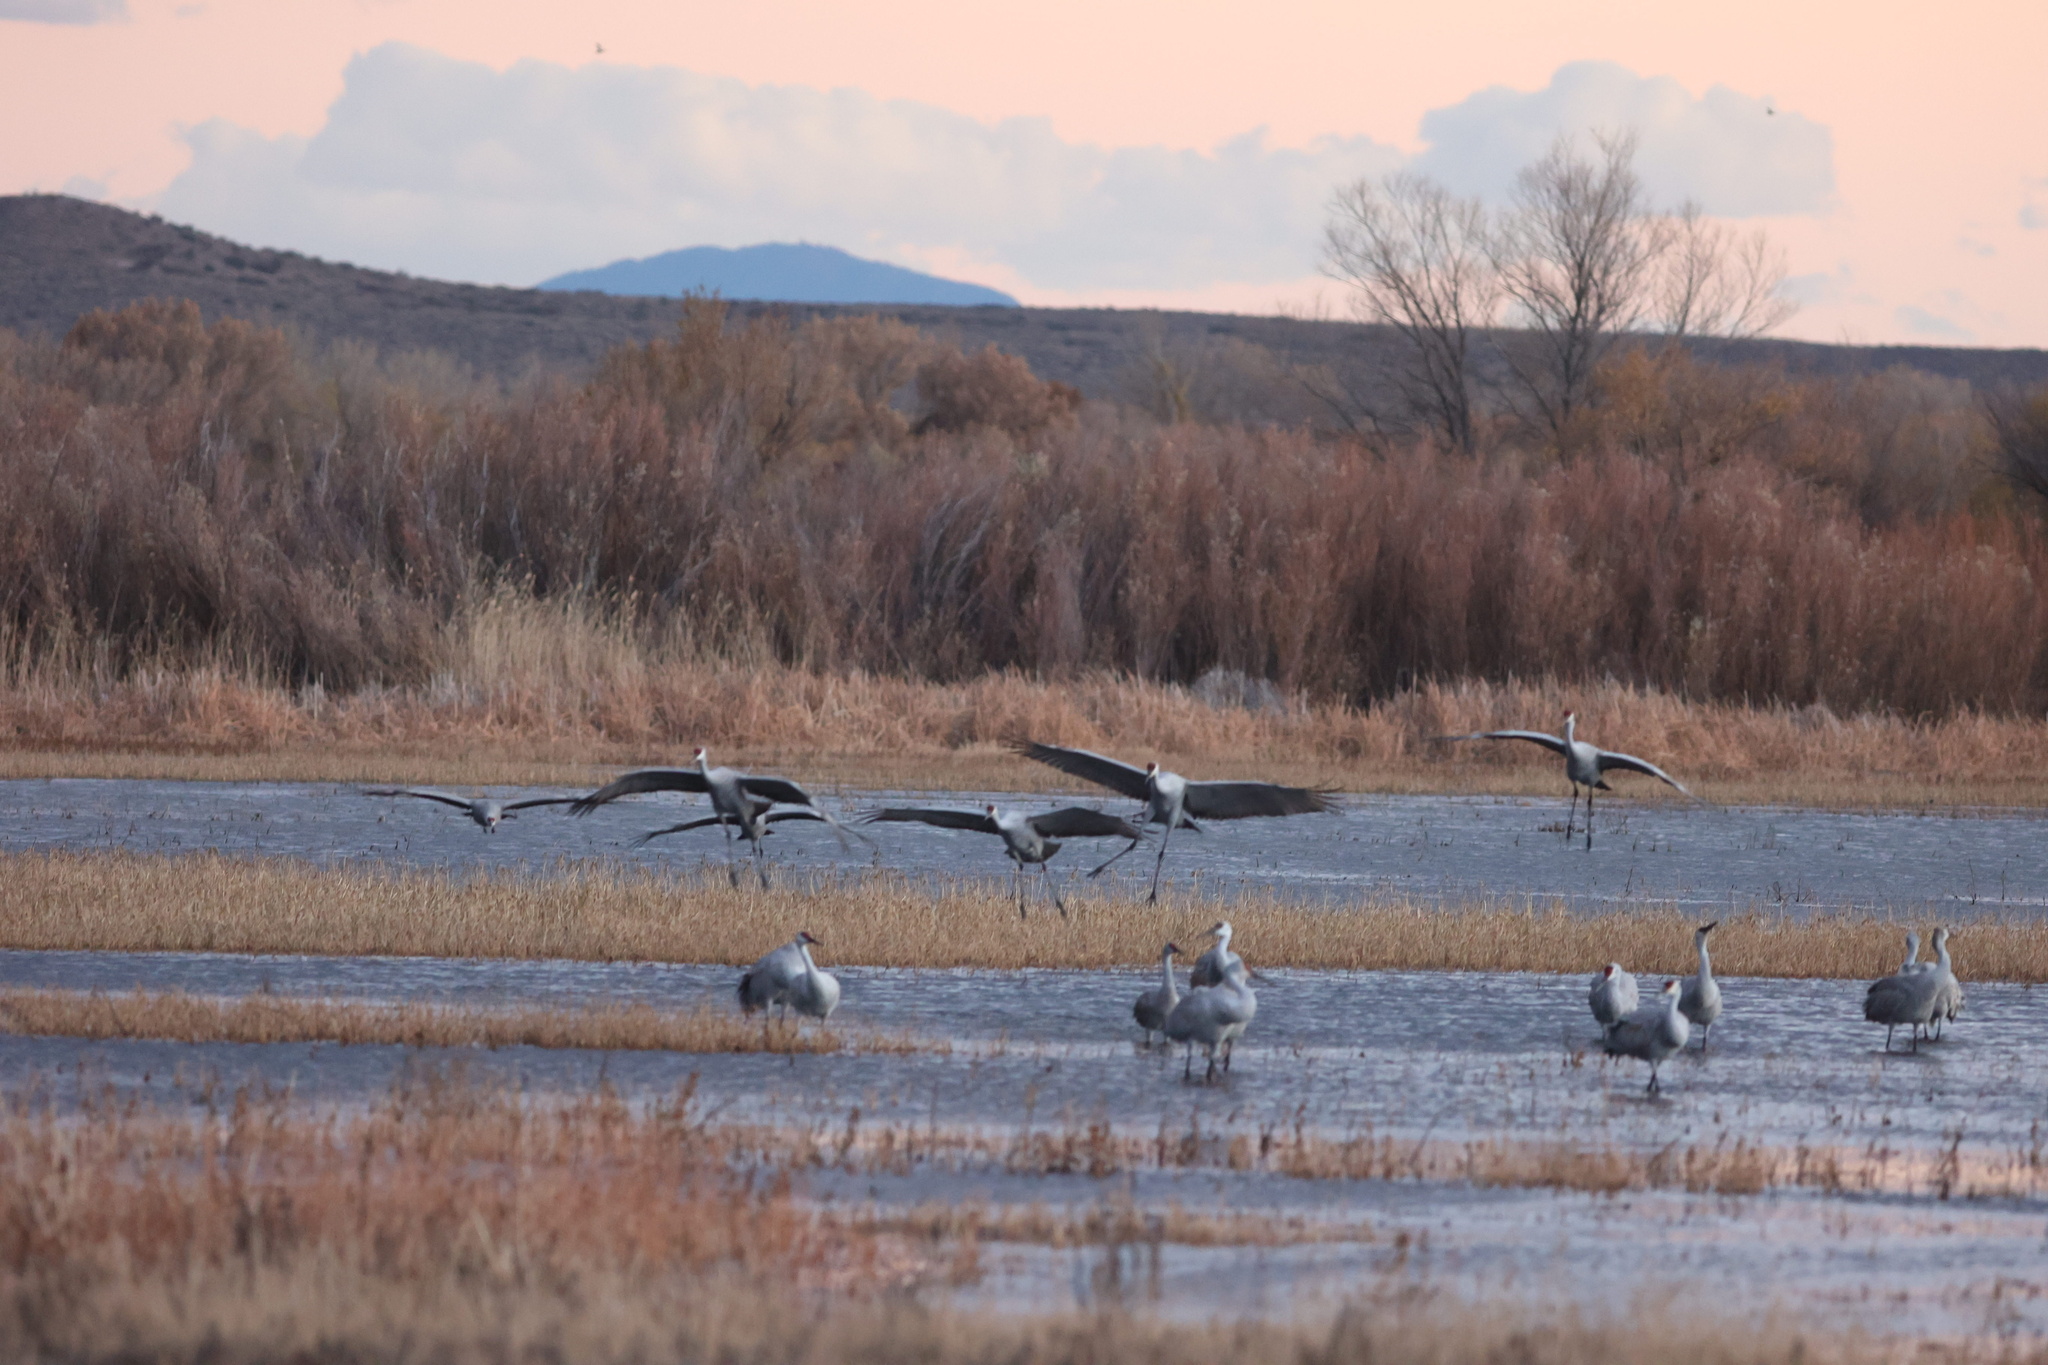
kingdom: Animalia
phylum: Chordata
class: Aves
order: Gruiformes
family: Gruidae
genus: Grus
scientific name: Grus canadensis
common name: Sandhill crane
